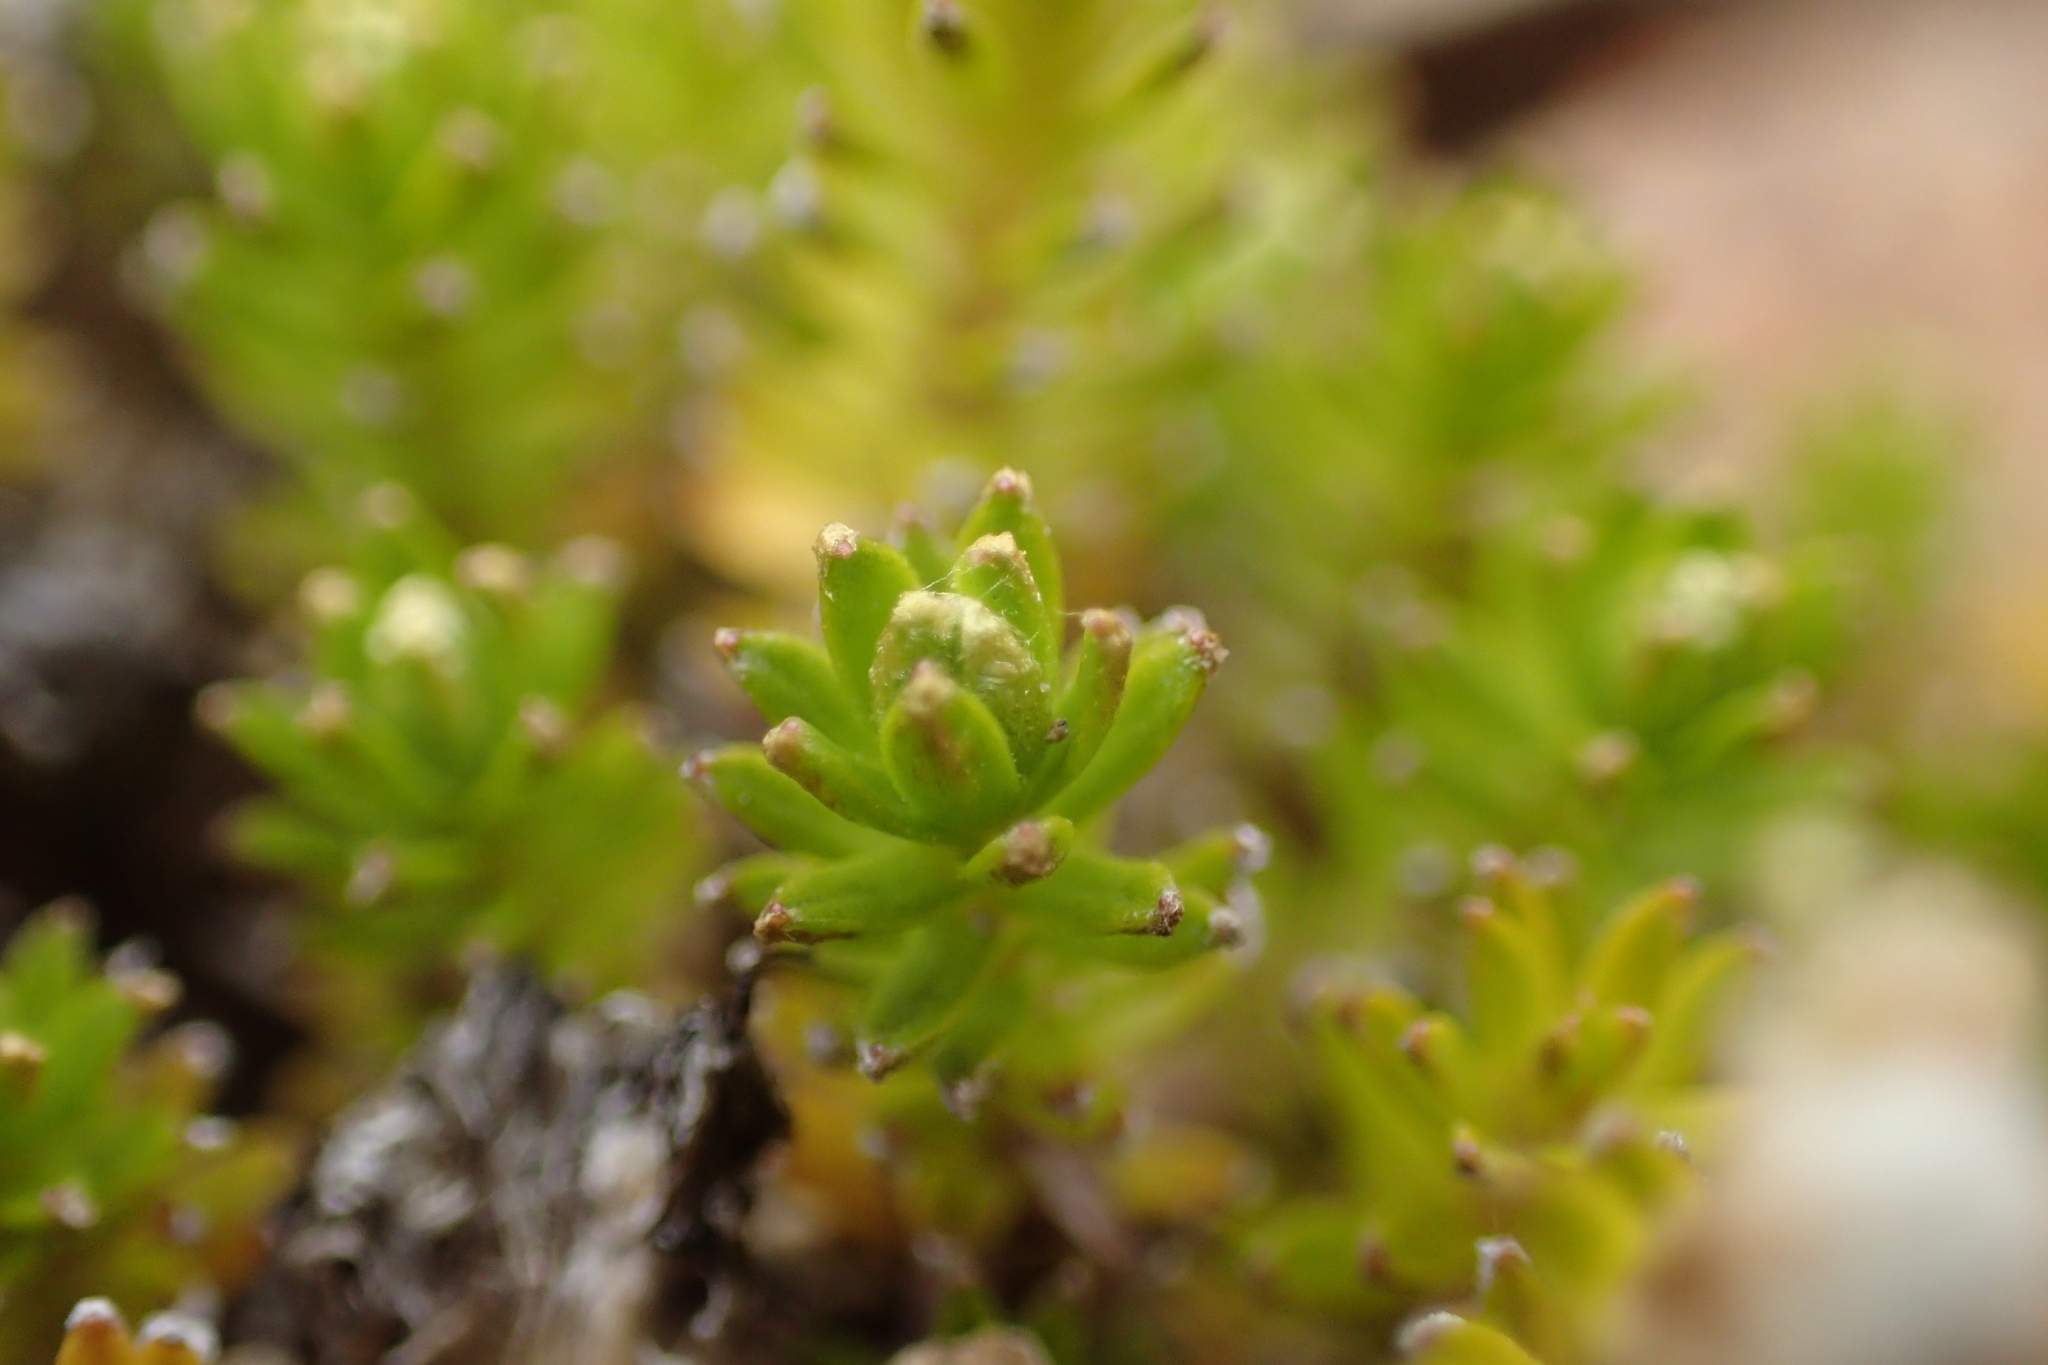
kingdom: Plantae
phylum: Tracheophyta
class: Magnoliopsida
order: Asterales
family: Asteraceae
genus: Raoulia
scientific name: Raoulia glabra
